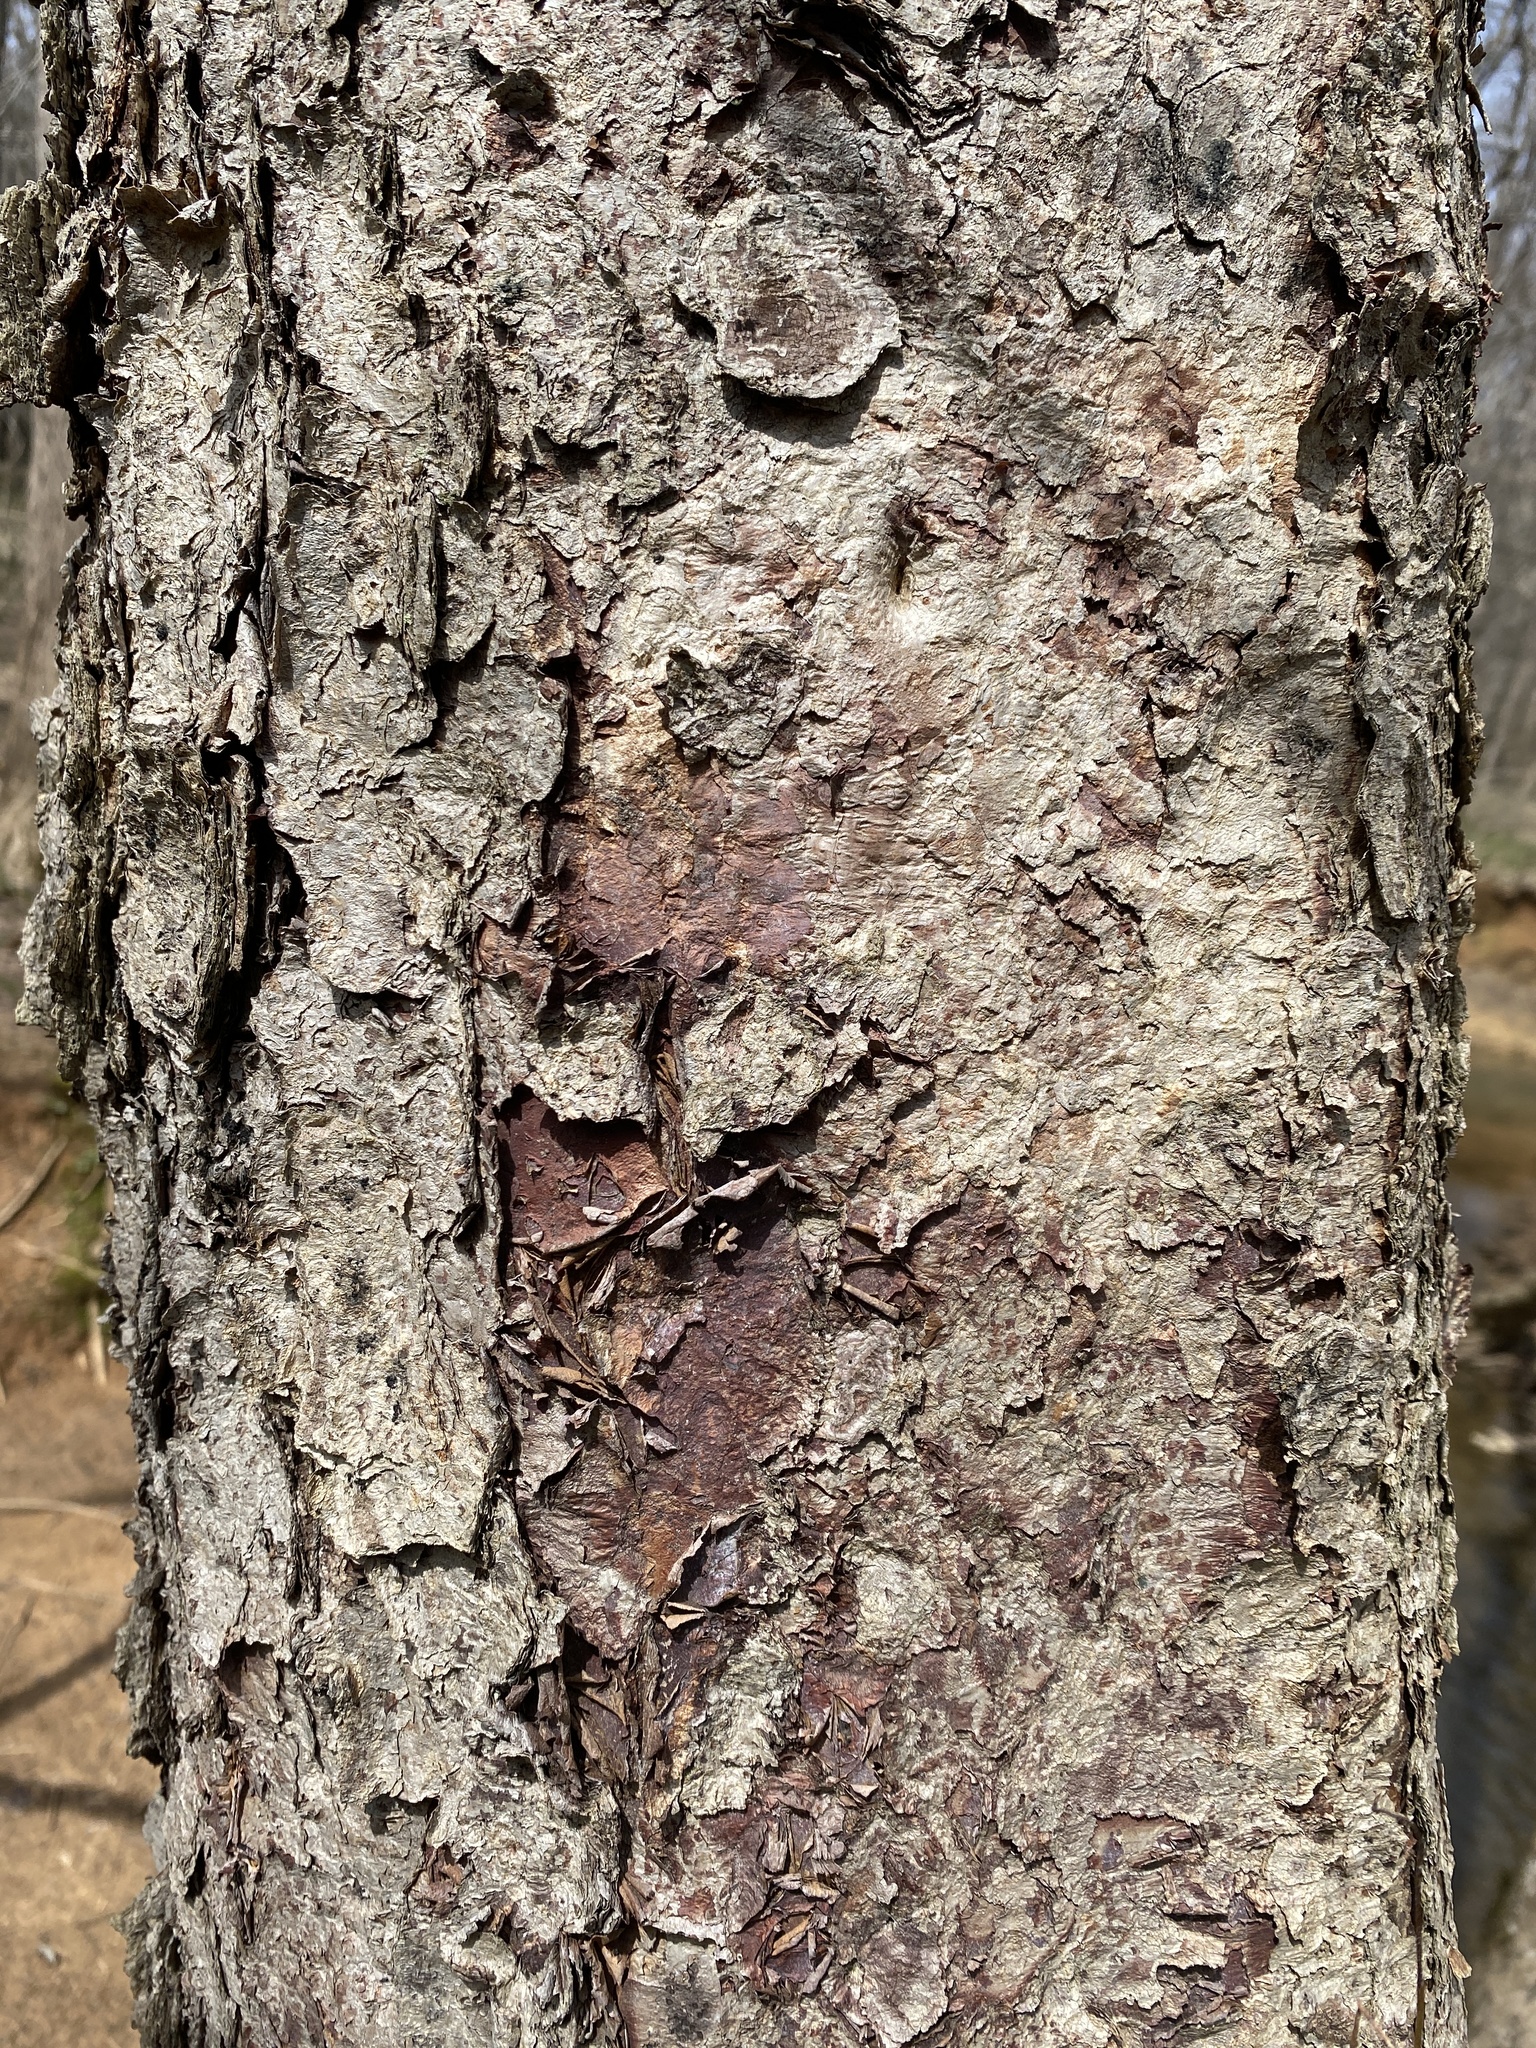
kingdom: Plantae
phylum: Tracheophyta
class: Magnoliopsida
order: Fagales
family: Betulaceae
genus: Betula
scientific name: Betula nigra
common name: Black birch
